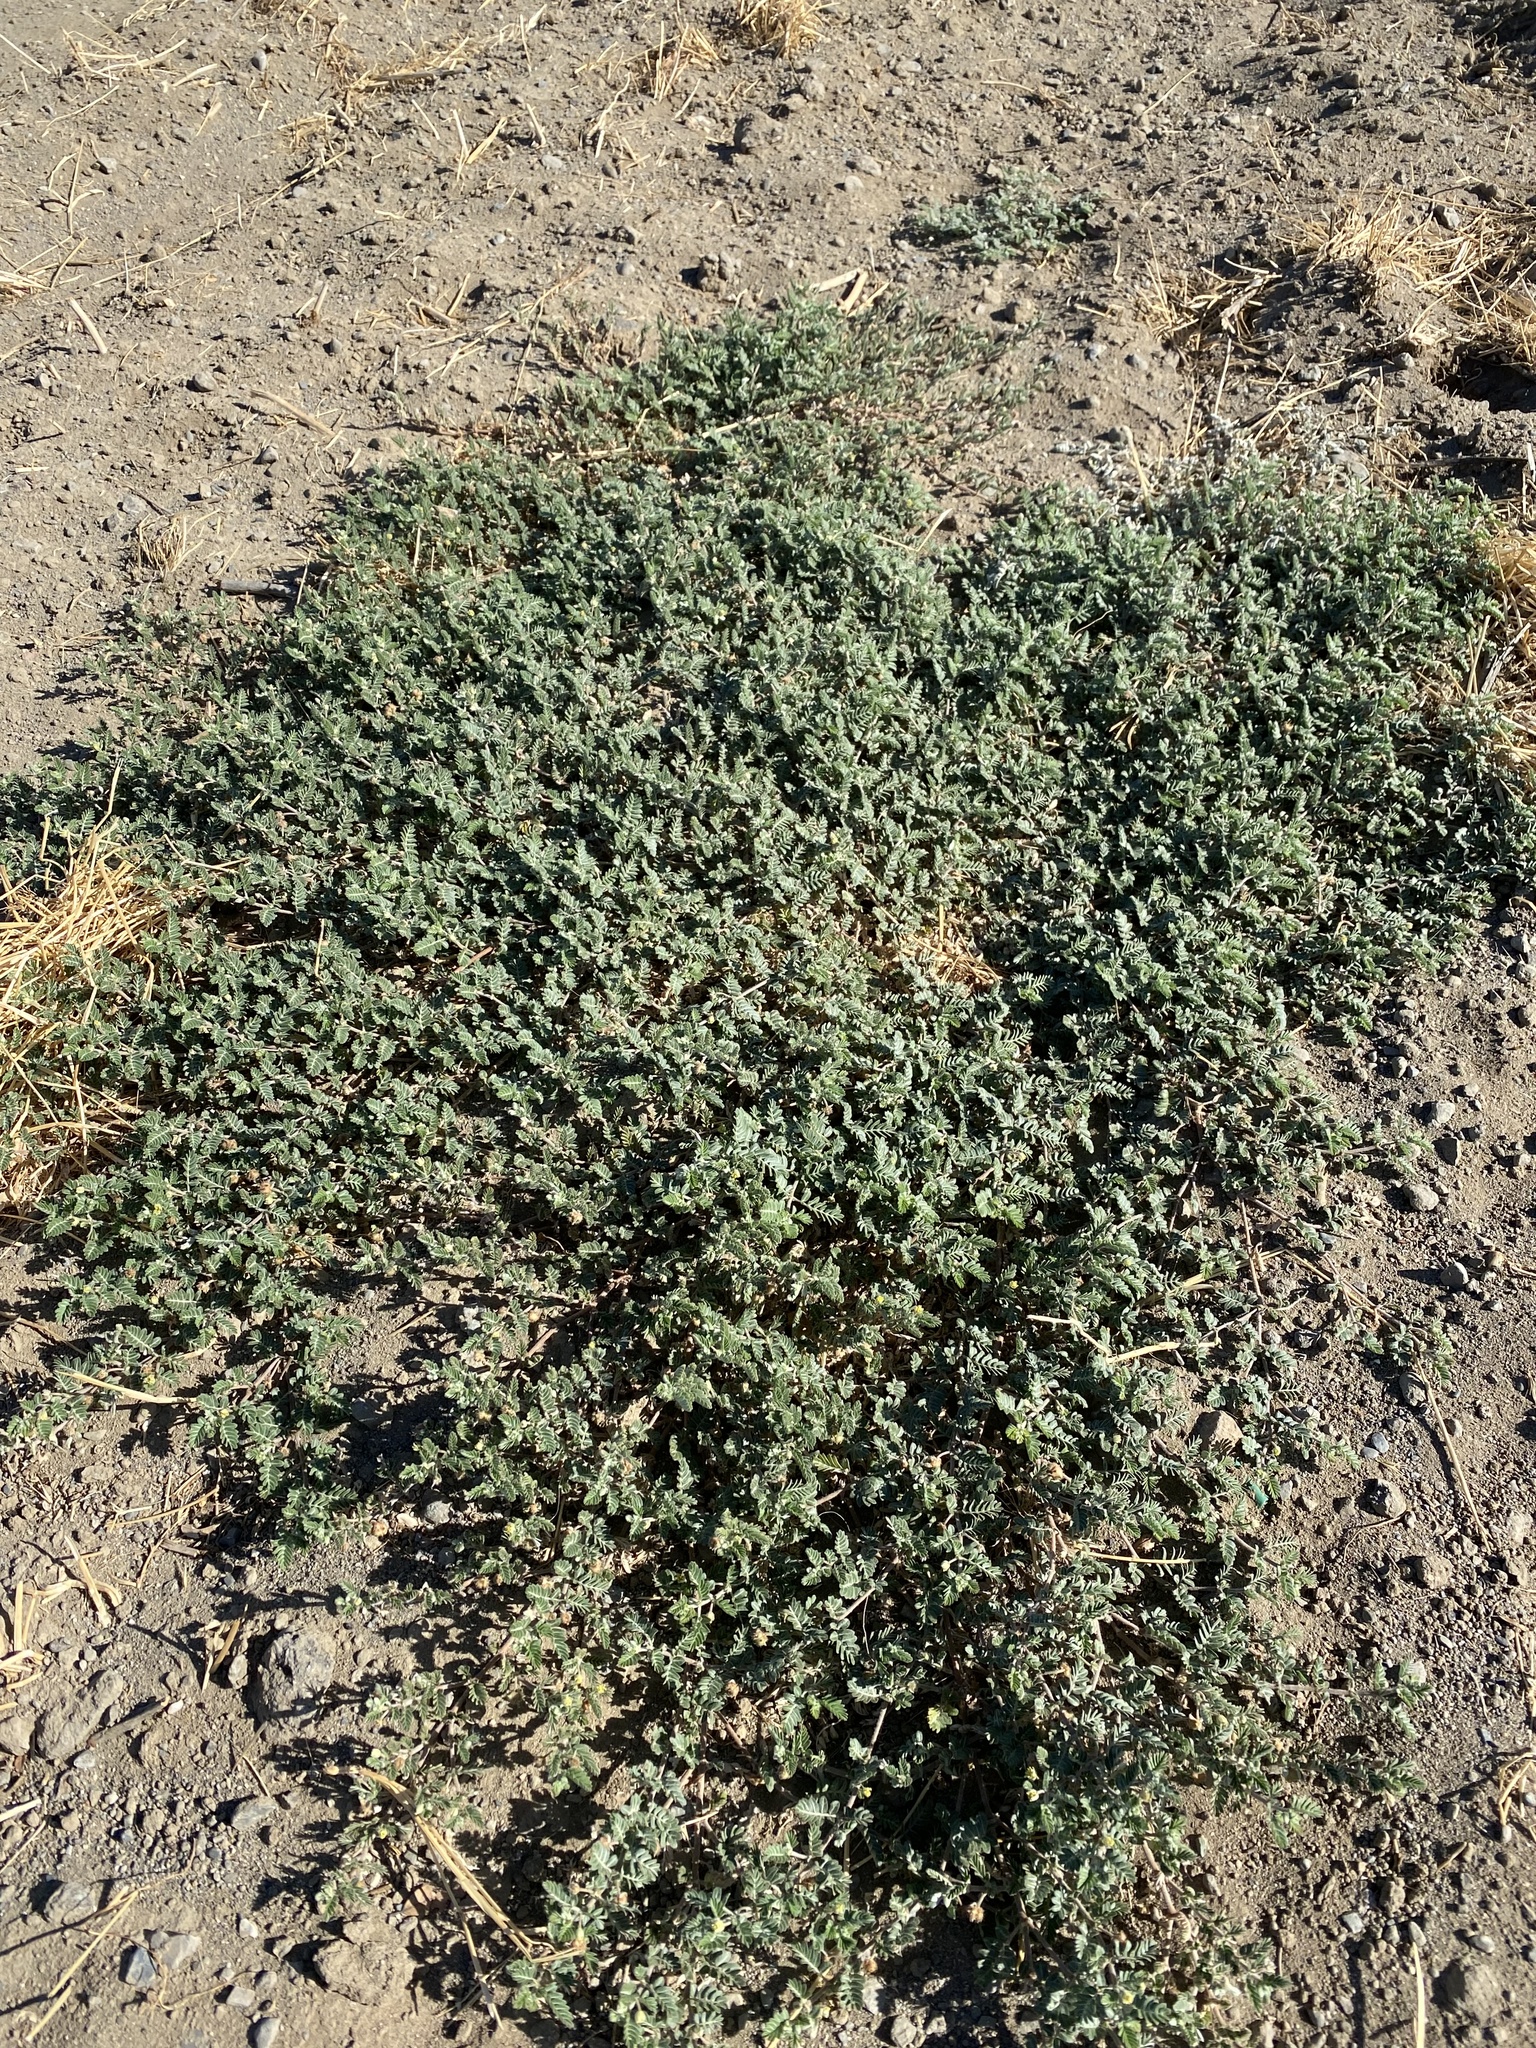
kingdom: Plantae
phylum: Tracheophyta
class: Magnoliopsida
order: Zygophyllales
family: Zygophyllaceae
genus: Tribulus
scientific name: Tribulus terrestris
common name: Puncturevine
